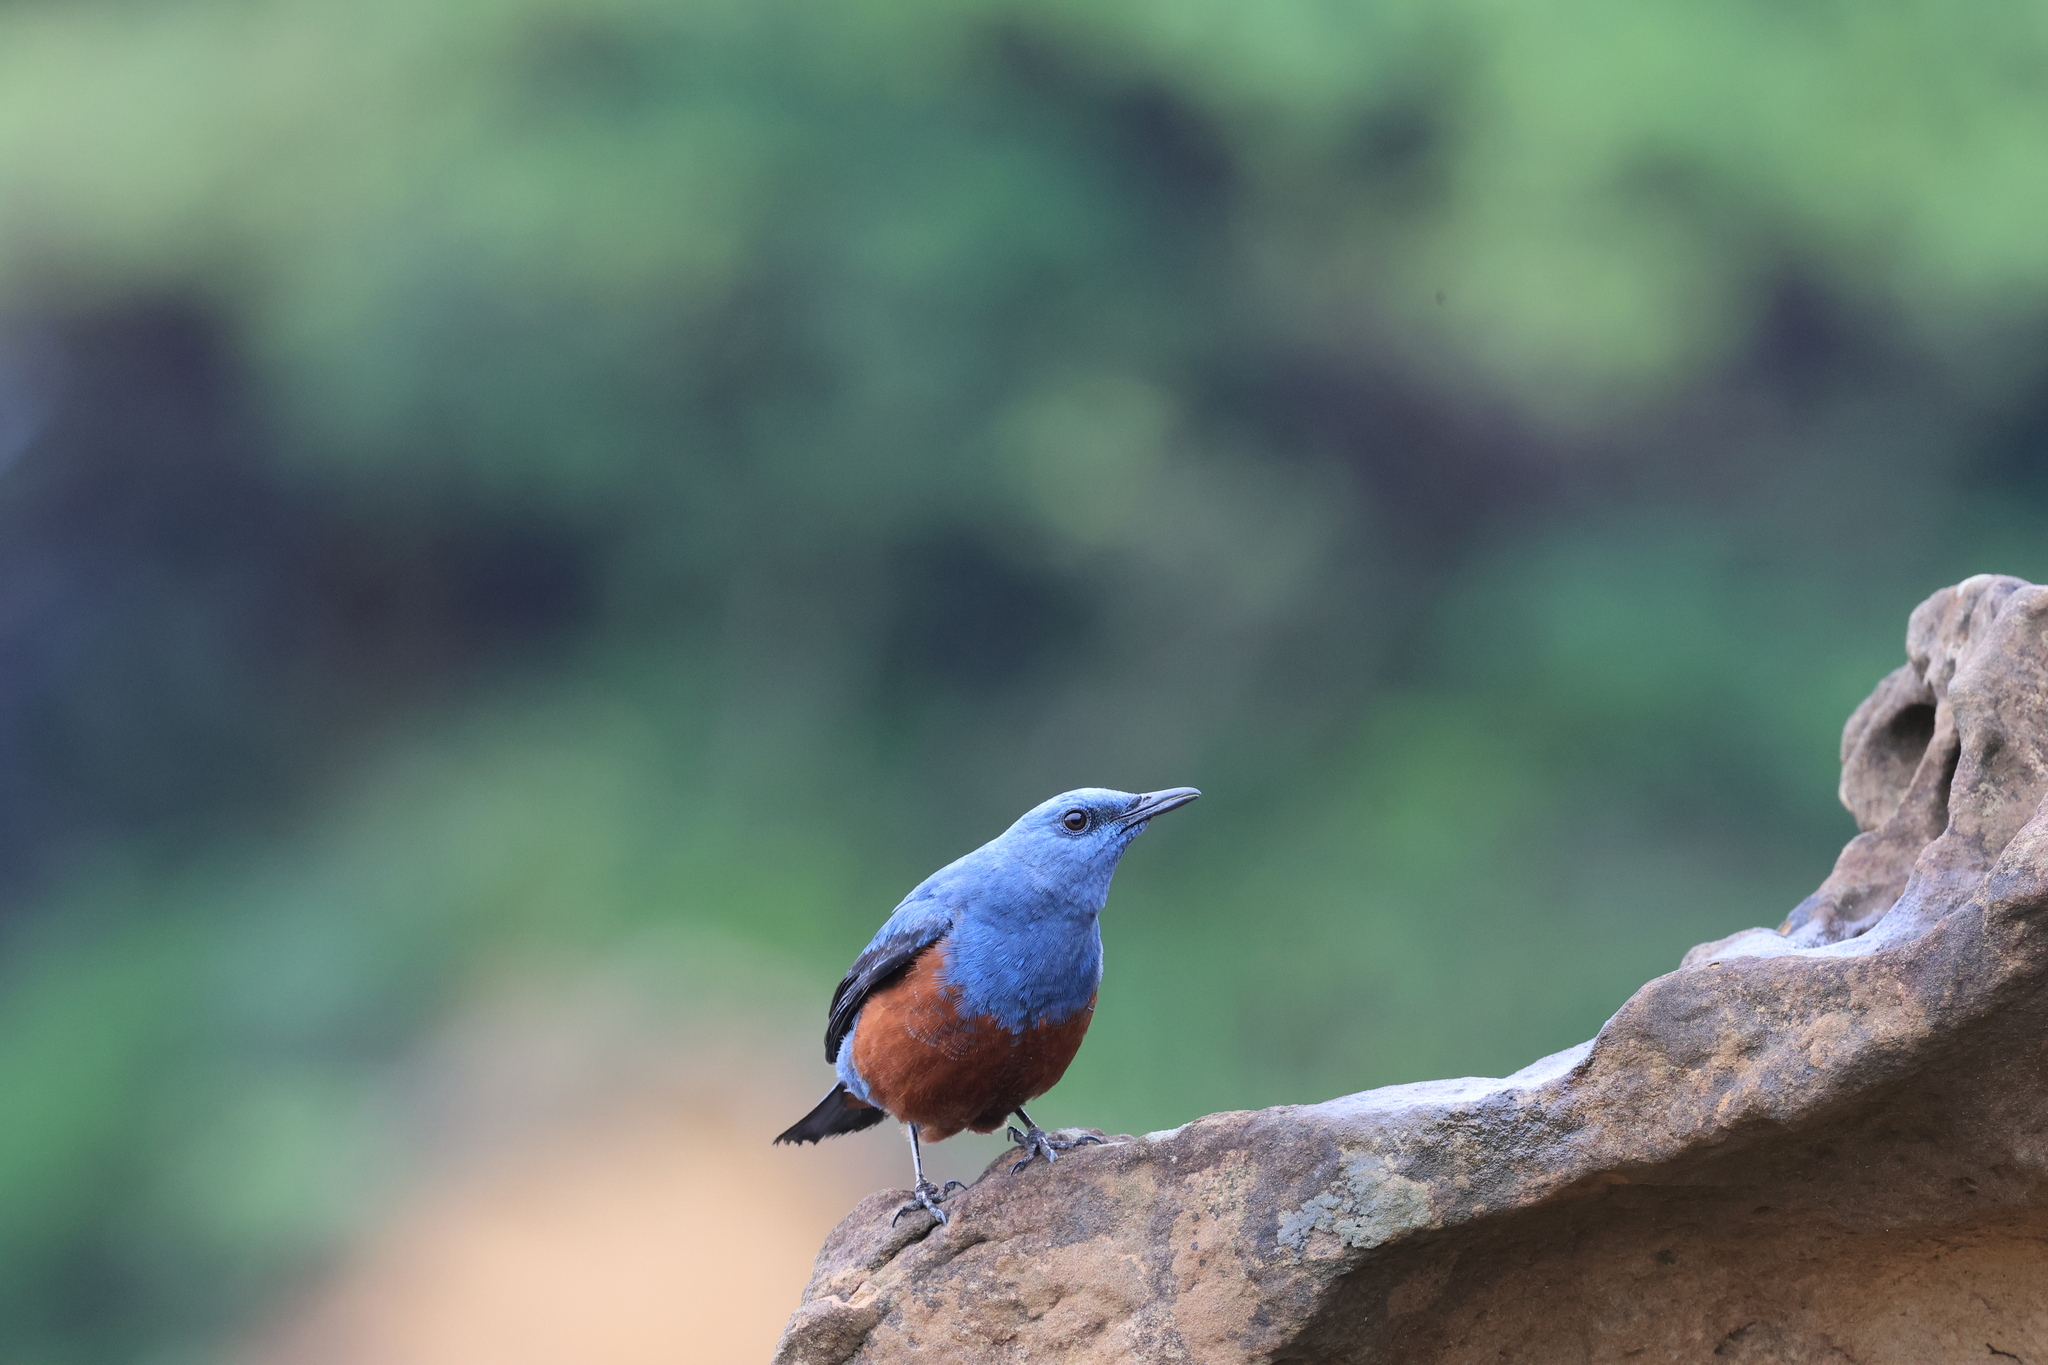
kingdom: Animalia
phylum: Chordata
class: Aves
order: Passeriformes
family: Muscicapidae
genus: Monticola
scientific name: Monticola solitarius
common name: Blue rock thrush
